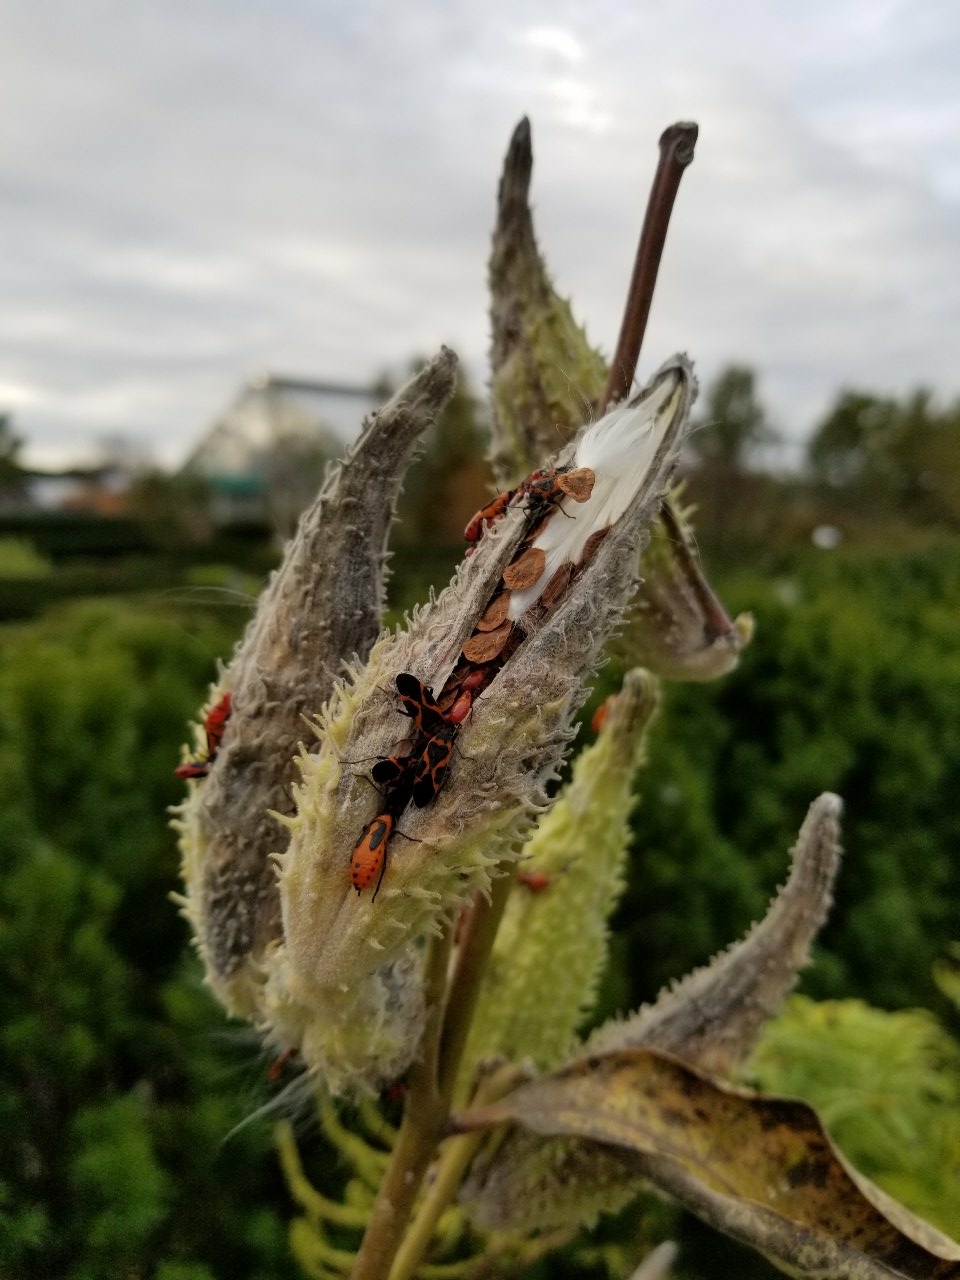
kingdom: Animalia
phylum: Arthropoda
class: Insecta
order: Hemiptera
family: Lygaeidae
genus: Lygaeus
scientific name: Lygaeus kalmii
